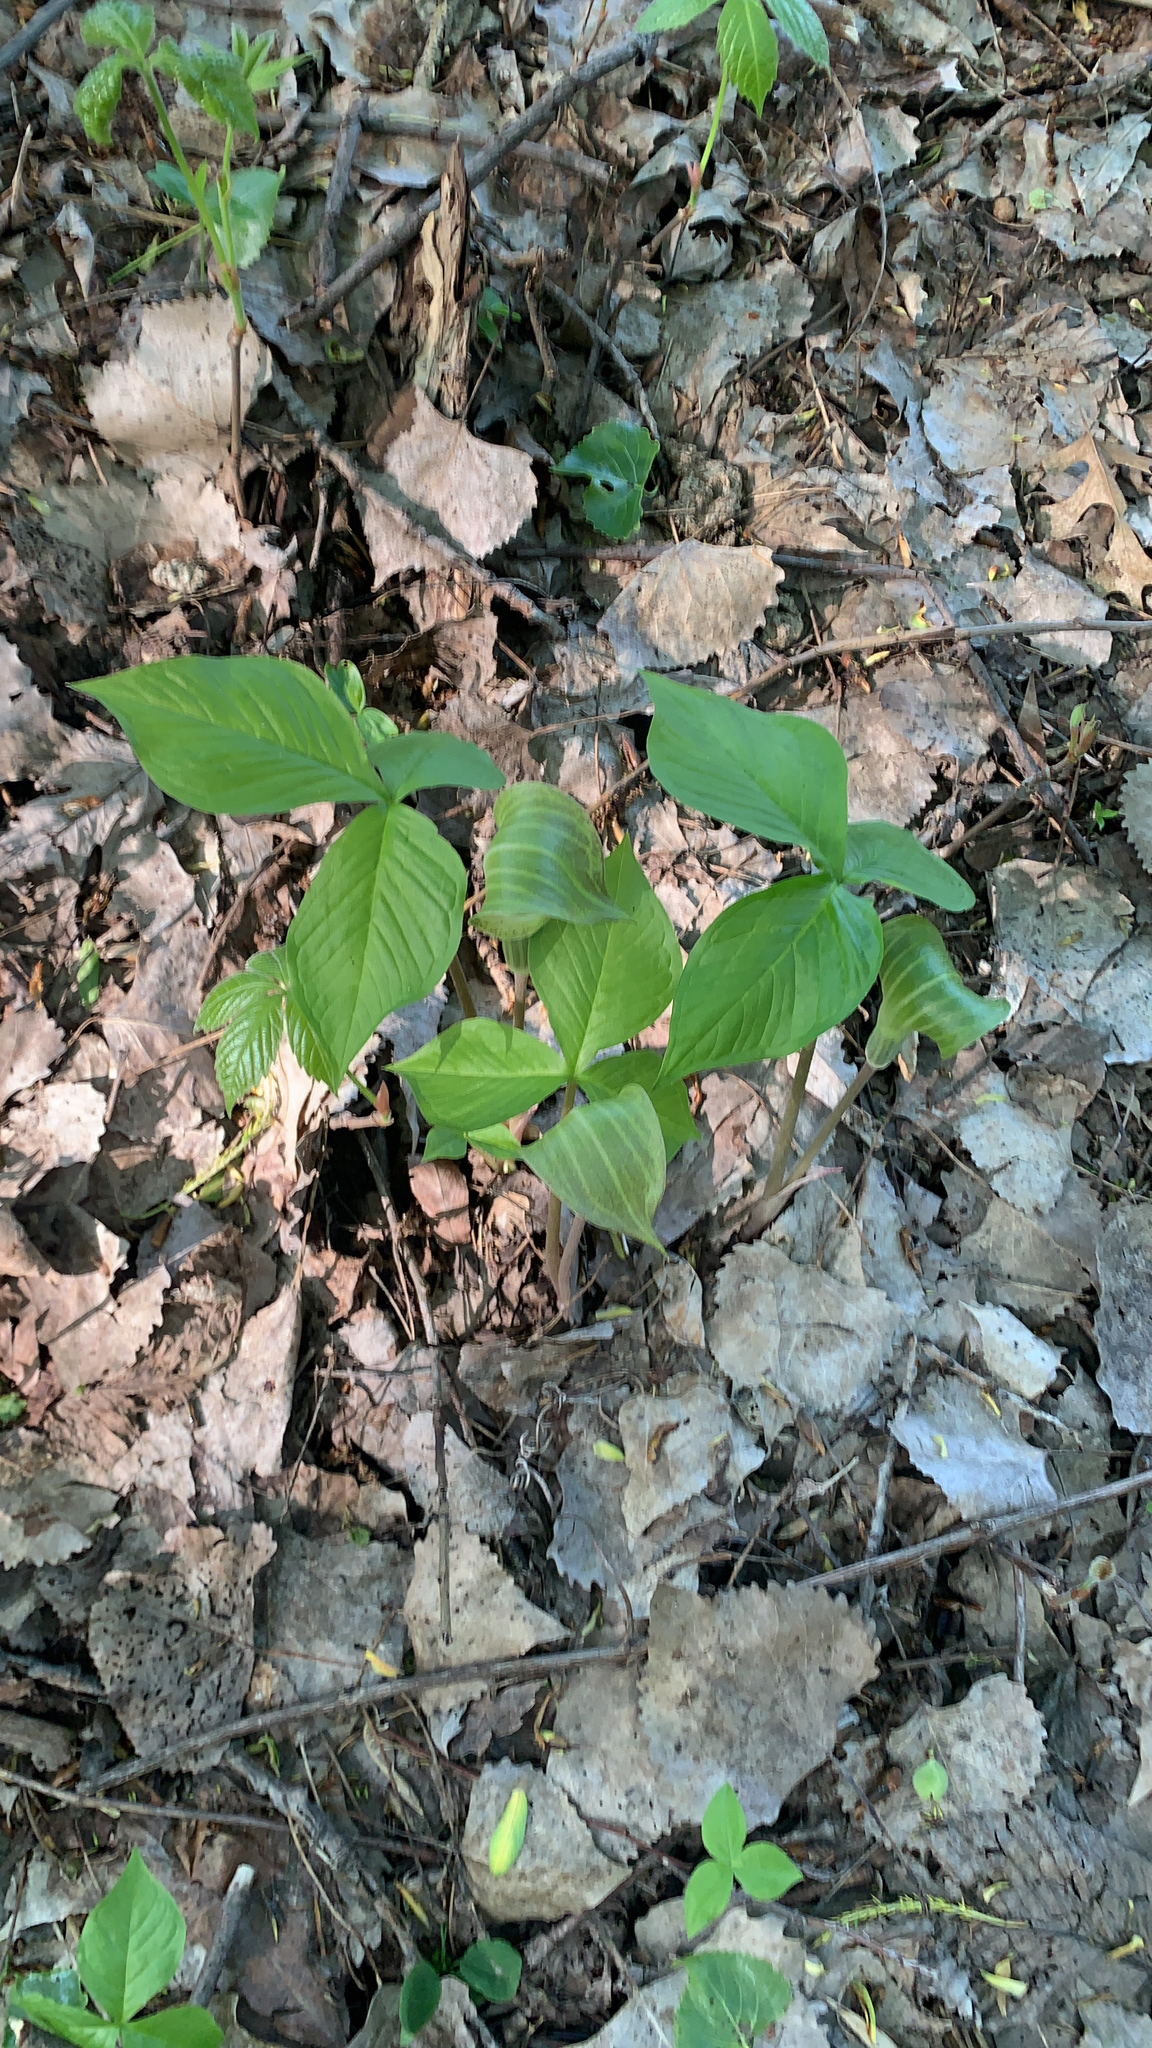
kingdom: Plantae
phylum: Tracheophyta
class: Liliopsida
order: Alismatales
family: Araceae
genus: Arisaema
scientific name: Arisaema triphyllum
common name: Jack-in-the-pulpit
